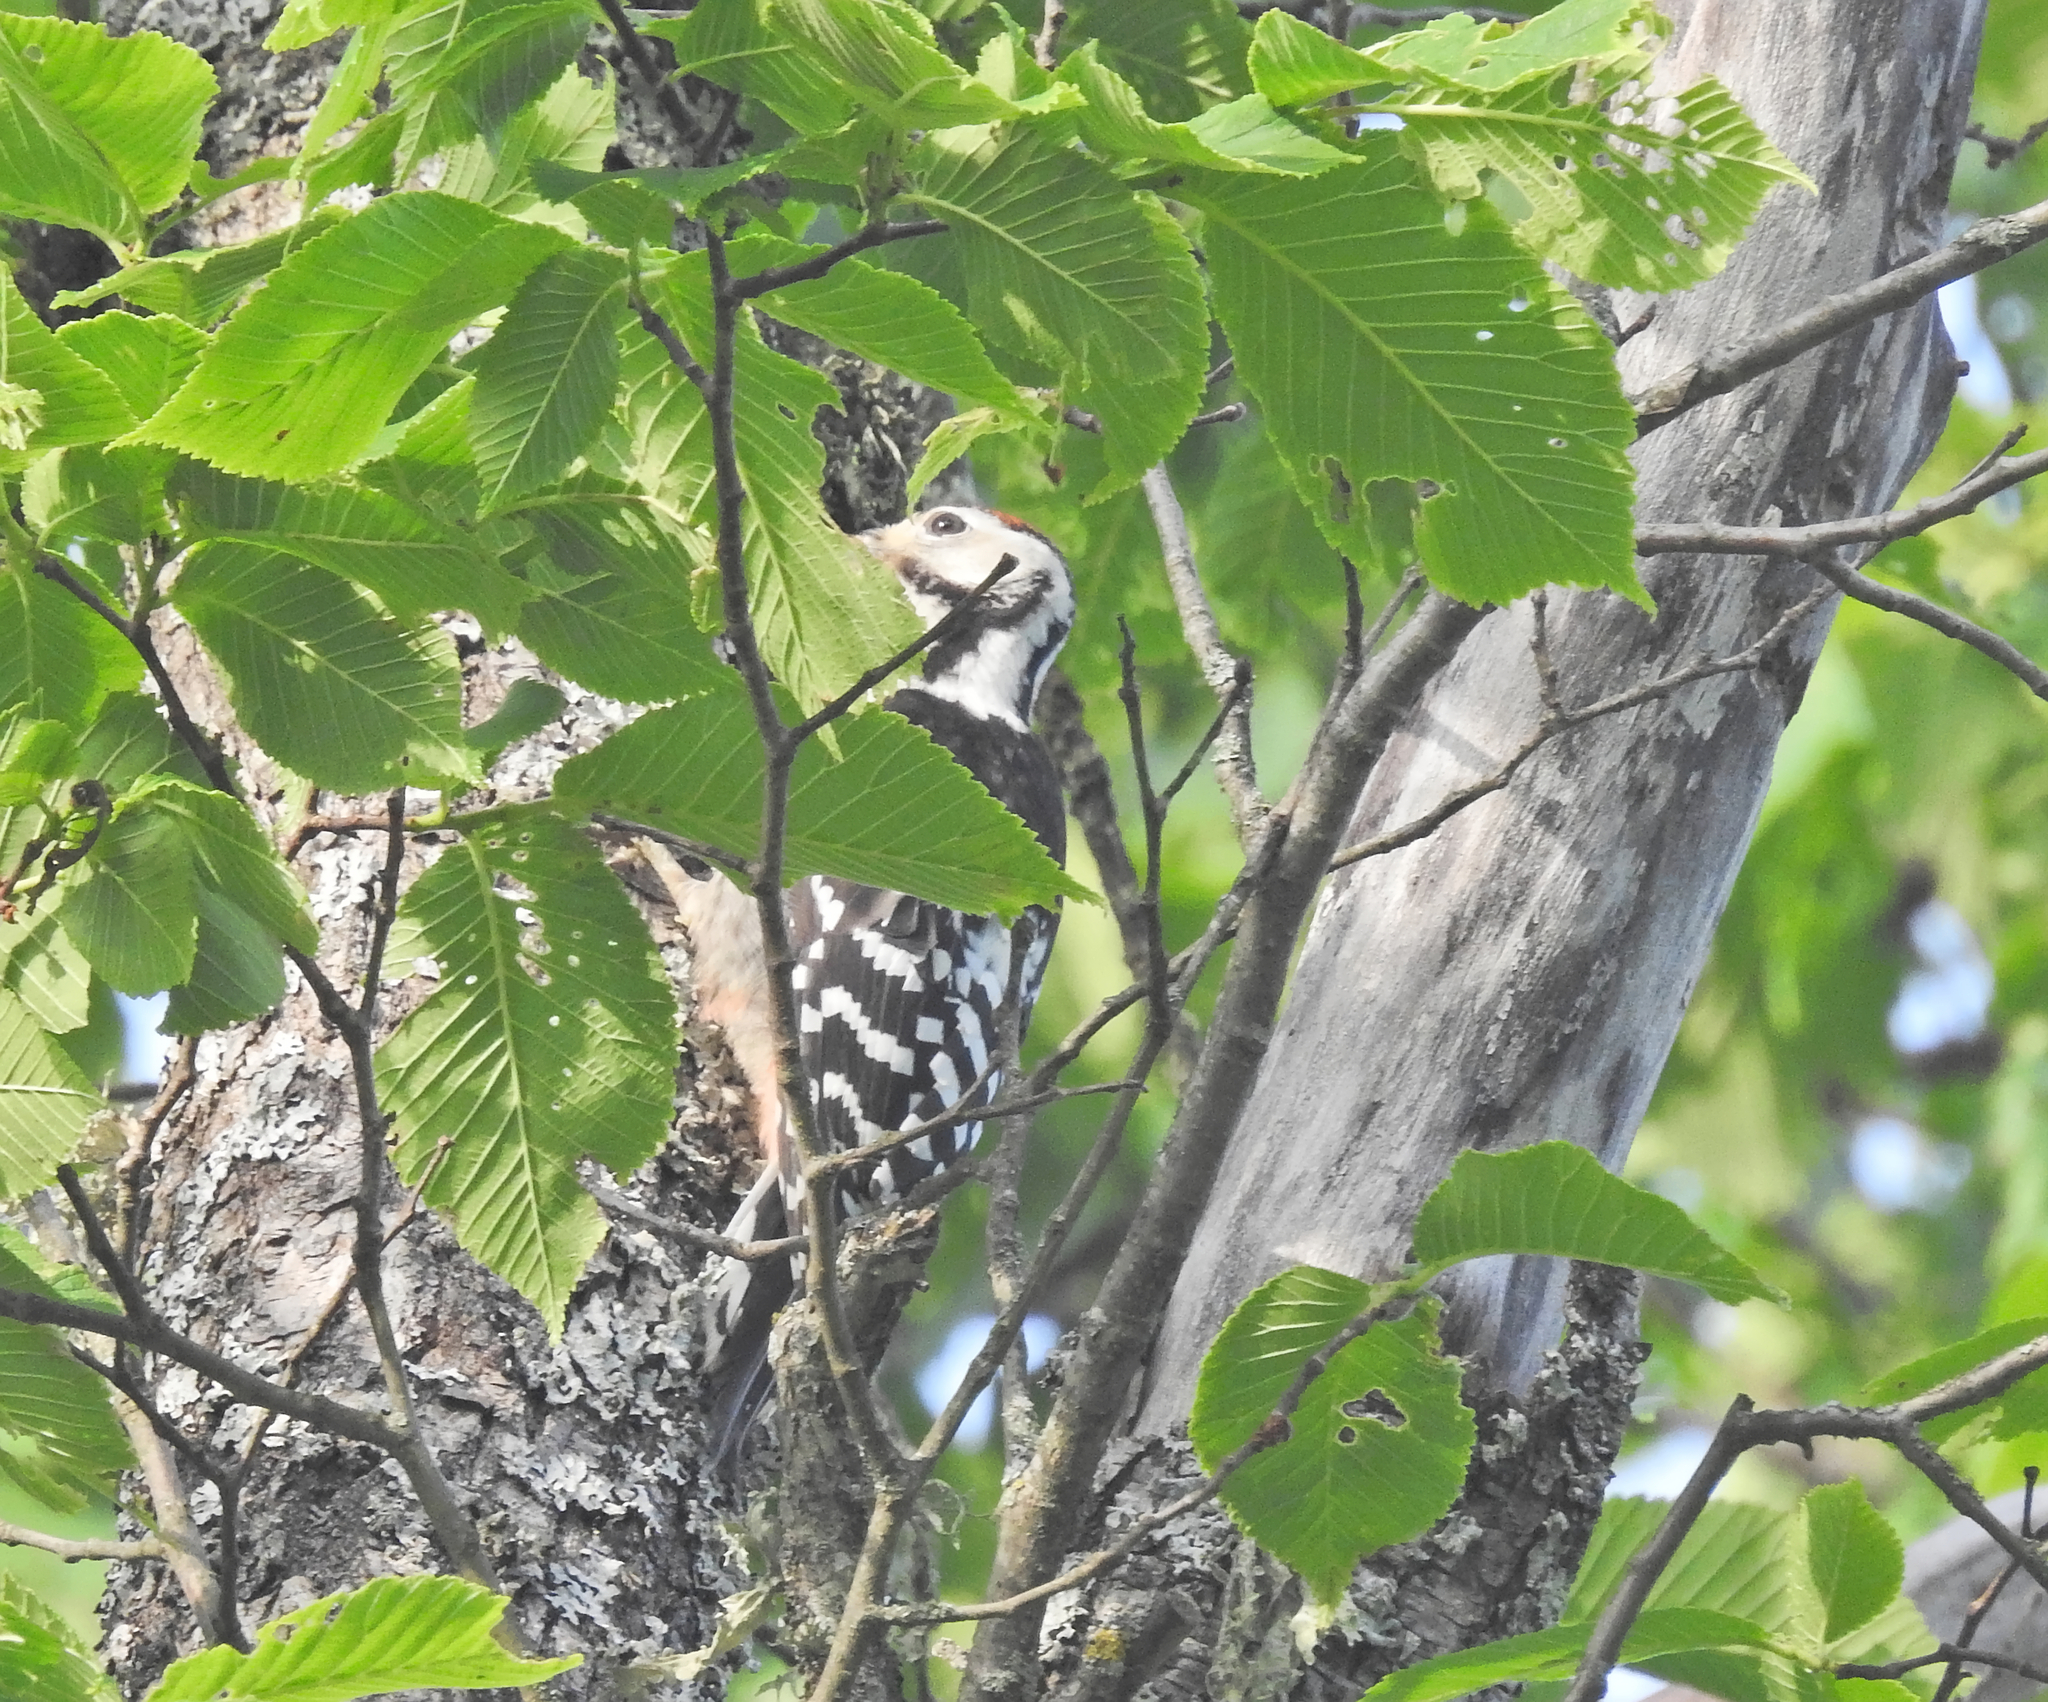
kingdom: Animalia
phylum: Chordata
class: Aves
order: Piciformes
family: Picidae
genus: Dendrocopos
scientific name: Dendrocopos leucotos
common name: White-backed woodpecker
